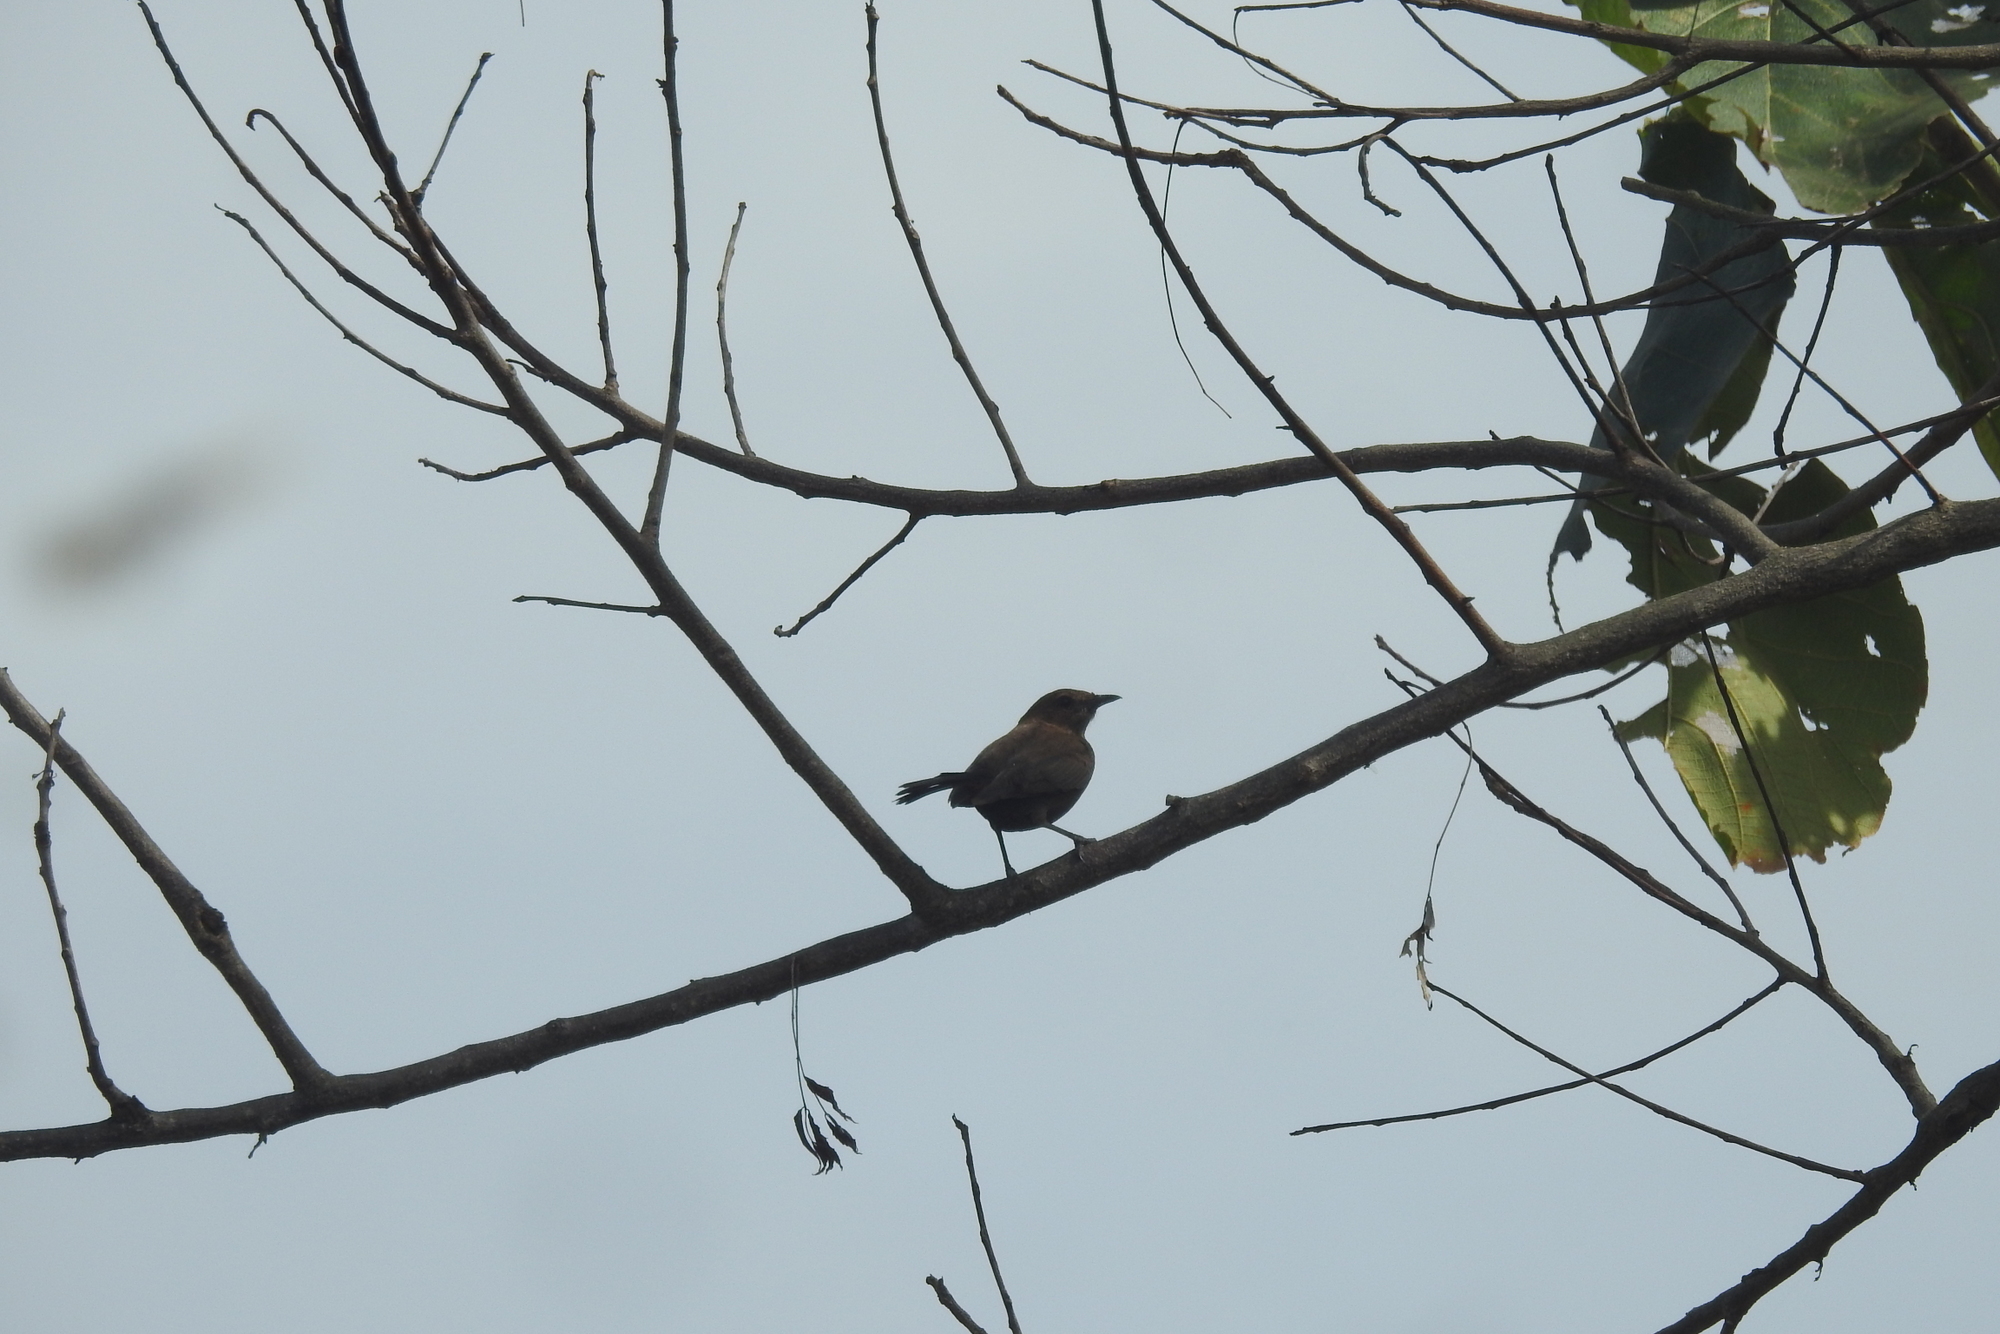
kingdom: Animalia
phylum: Chordata
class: Aves
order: Passeriformes
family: Muscicapidae
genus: Saxicoloides
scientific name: Saxicoloides fulicatus
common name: Indian robin
